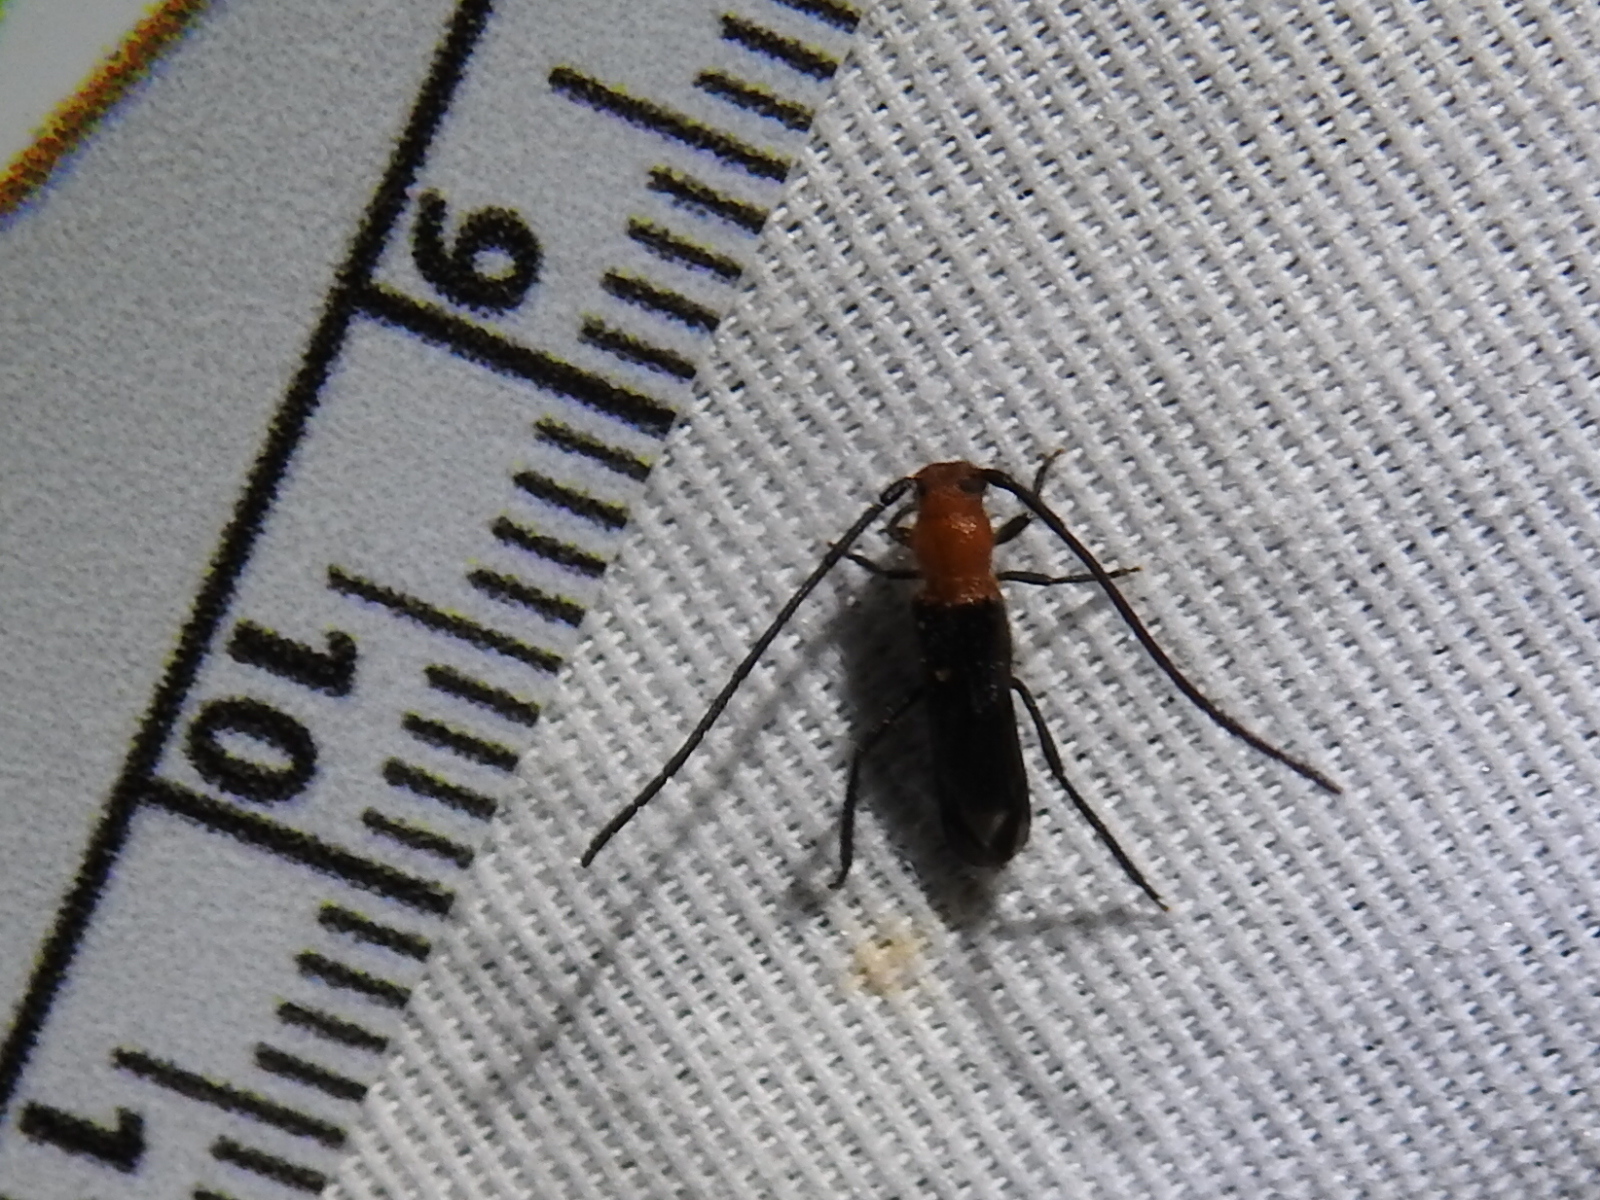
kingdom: Animalia
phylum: Arthropoda
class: Insecta
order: Coleoptera
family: Cerambycidae
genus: Coleomethia
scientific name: Coleomethia xanthocollis
